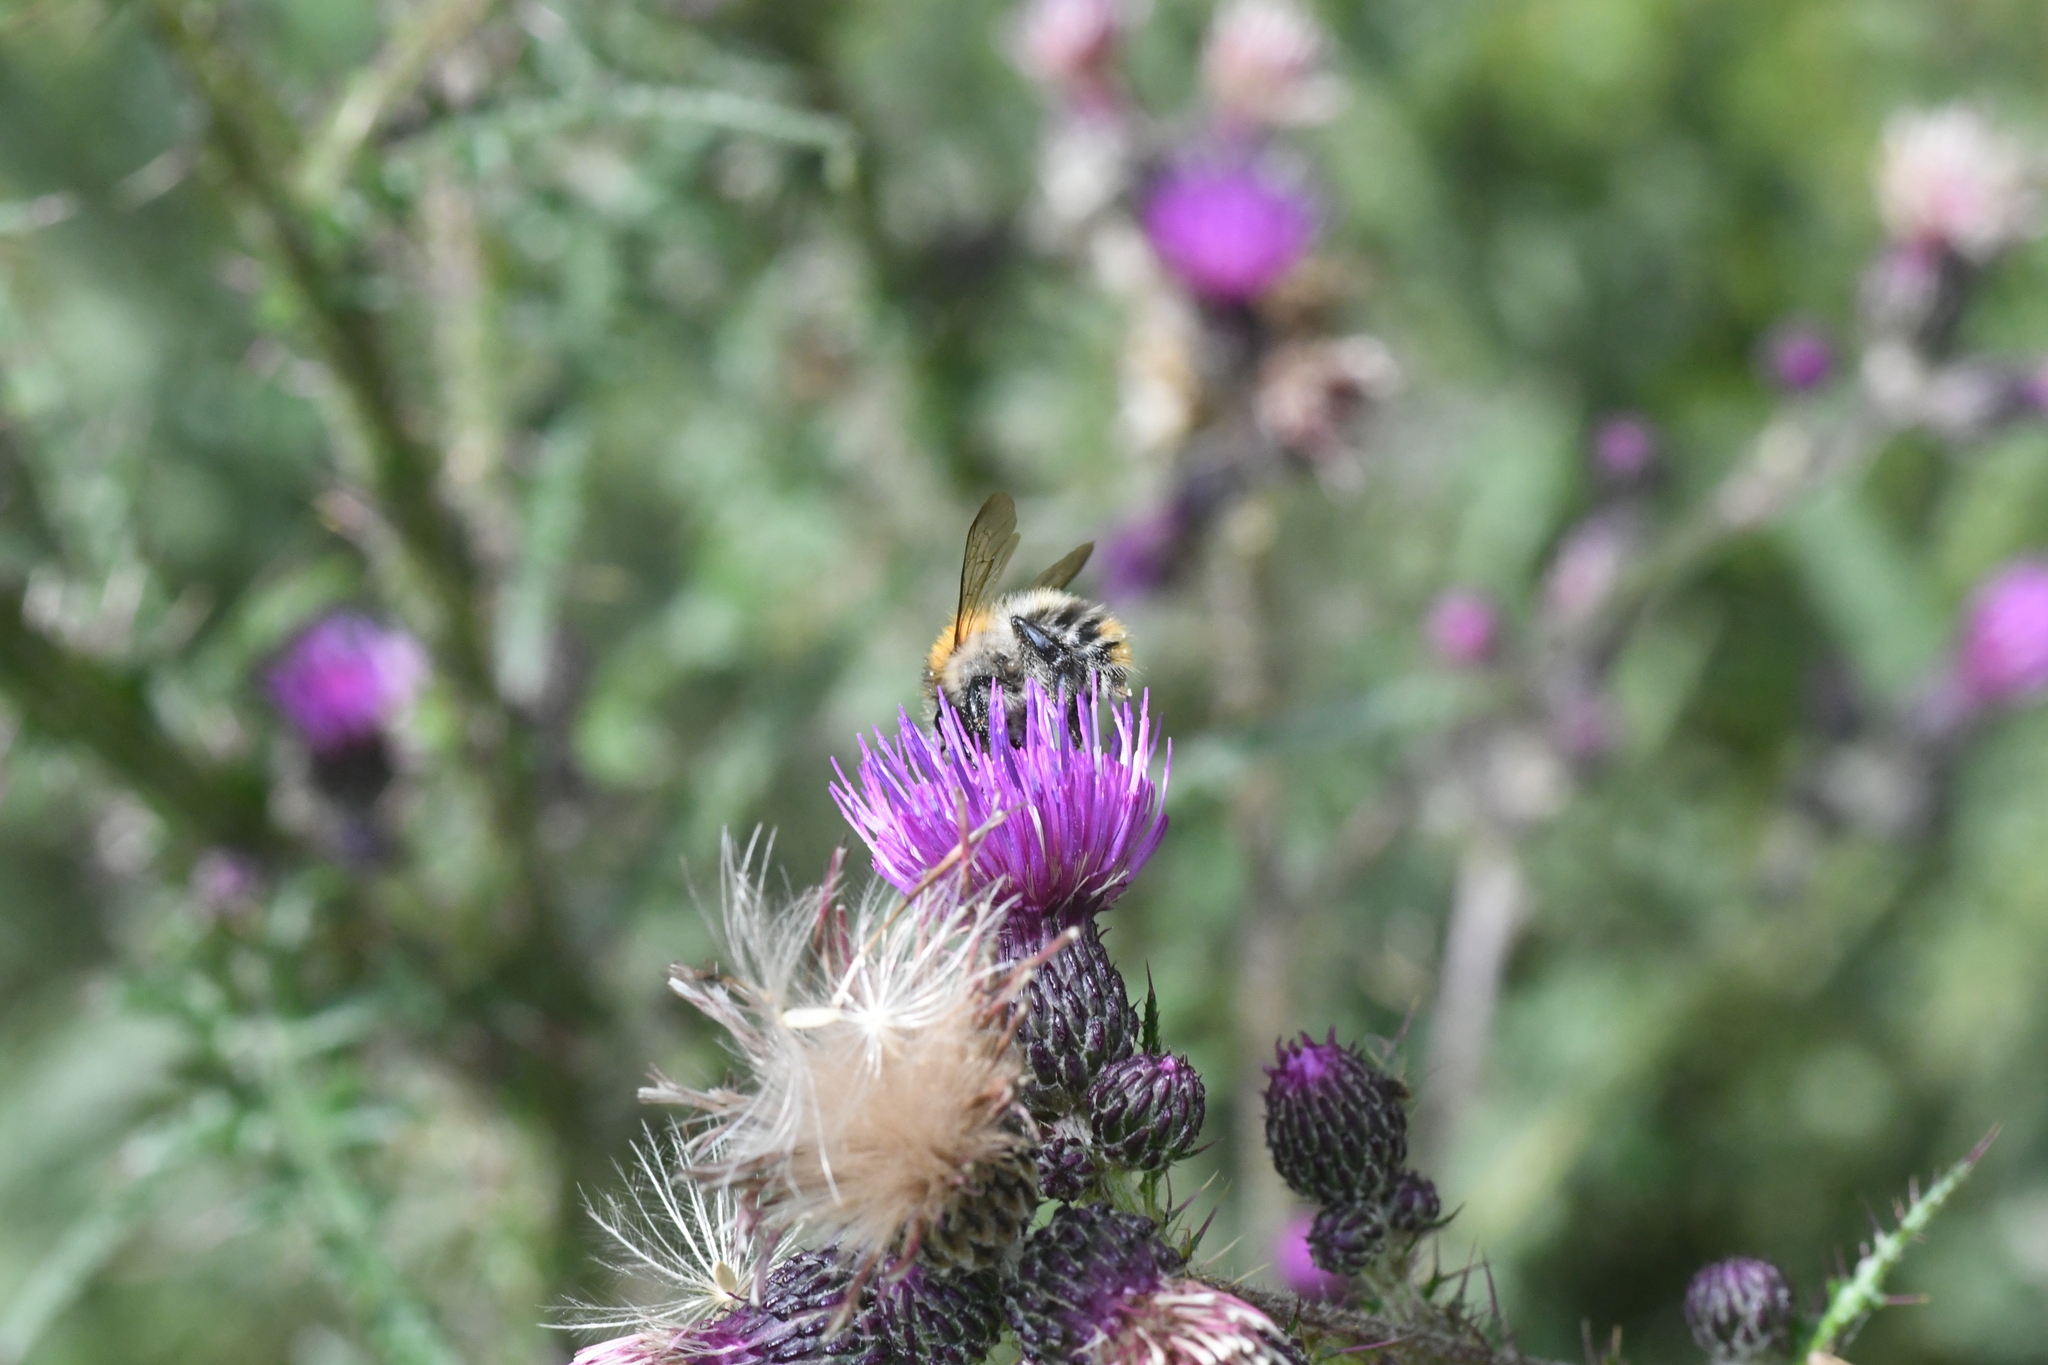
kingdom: Animalia
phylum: Arthropoda
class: Insecta
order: Hymenoptera
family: Apidae
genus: Bombus
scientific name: Bombus pascuorum
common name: Common carder bee
